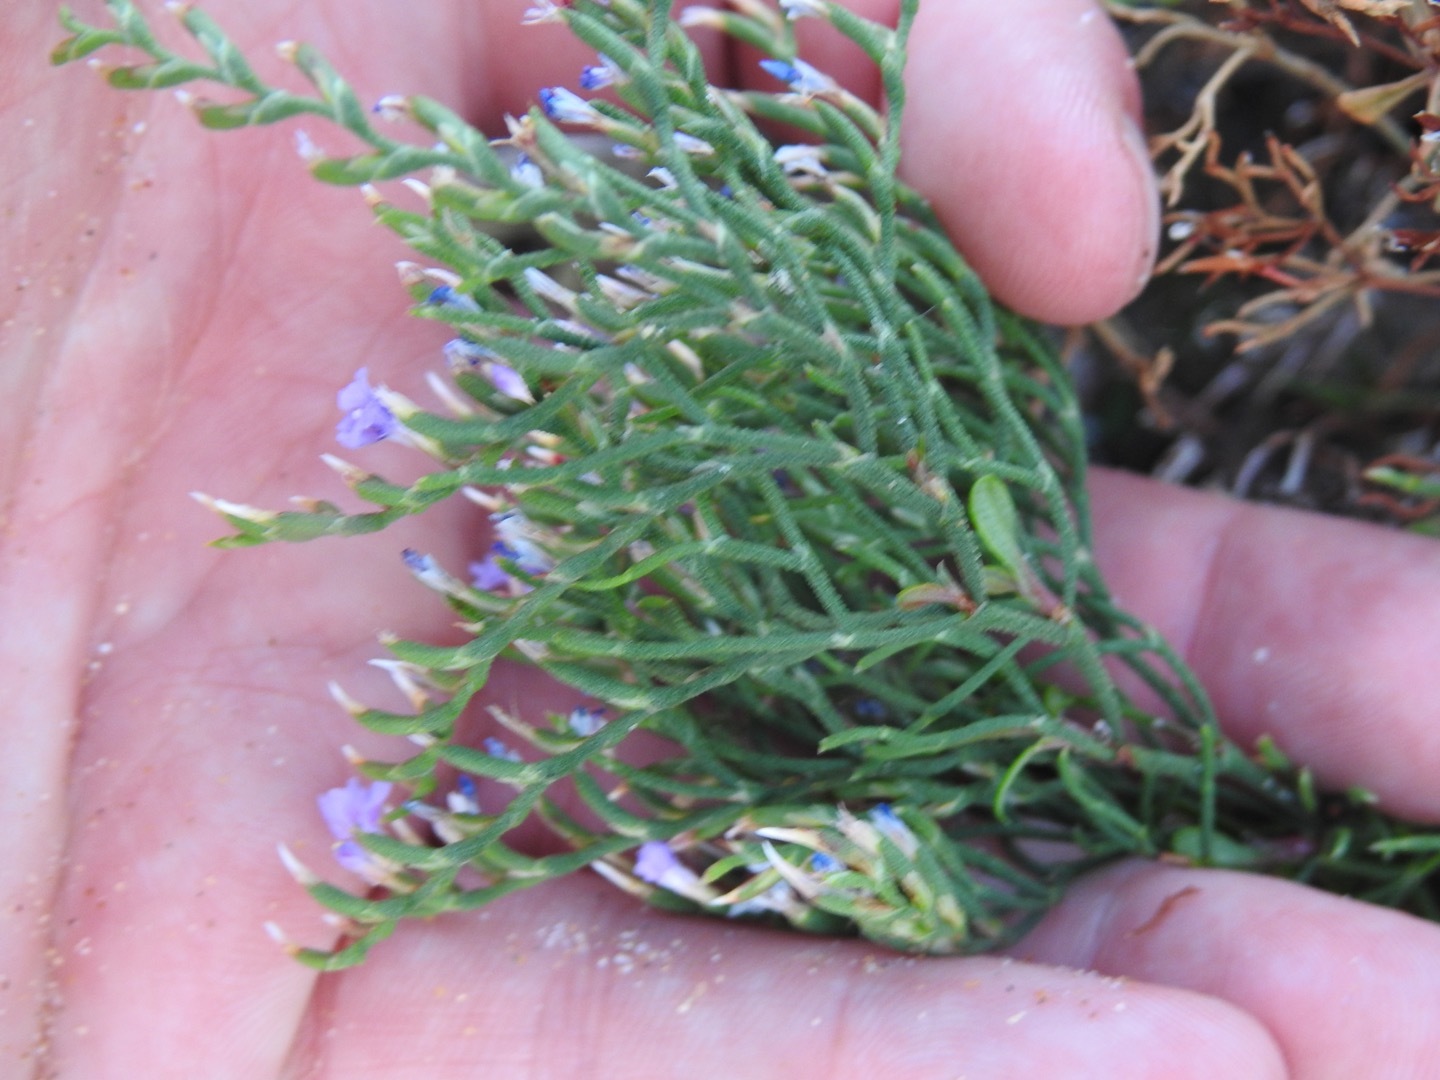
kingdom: Plantae
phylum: Tracheophyta
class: Magnoliopsida
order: Caryophyllales
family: Plumbaginaceae
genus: Limonium
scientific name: Limonium scabrum
